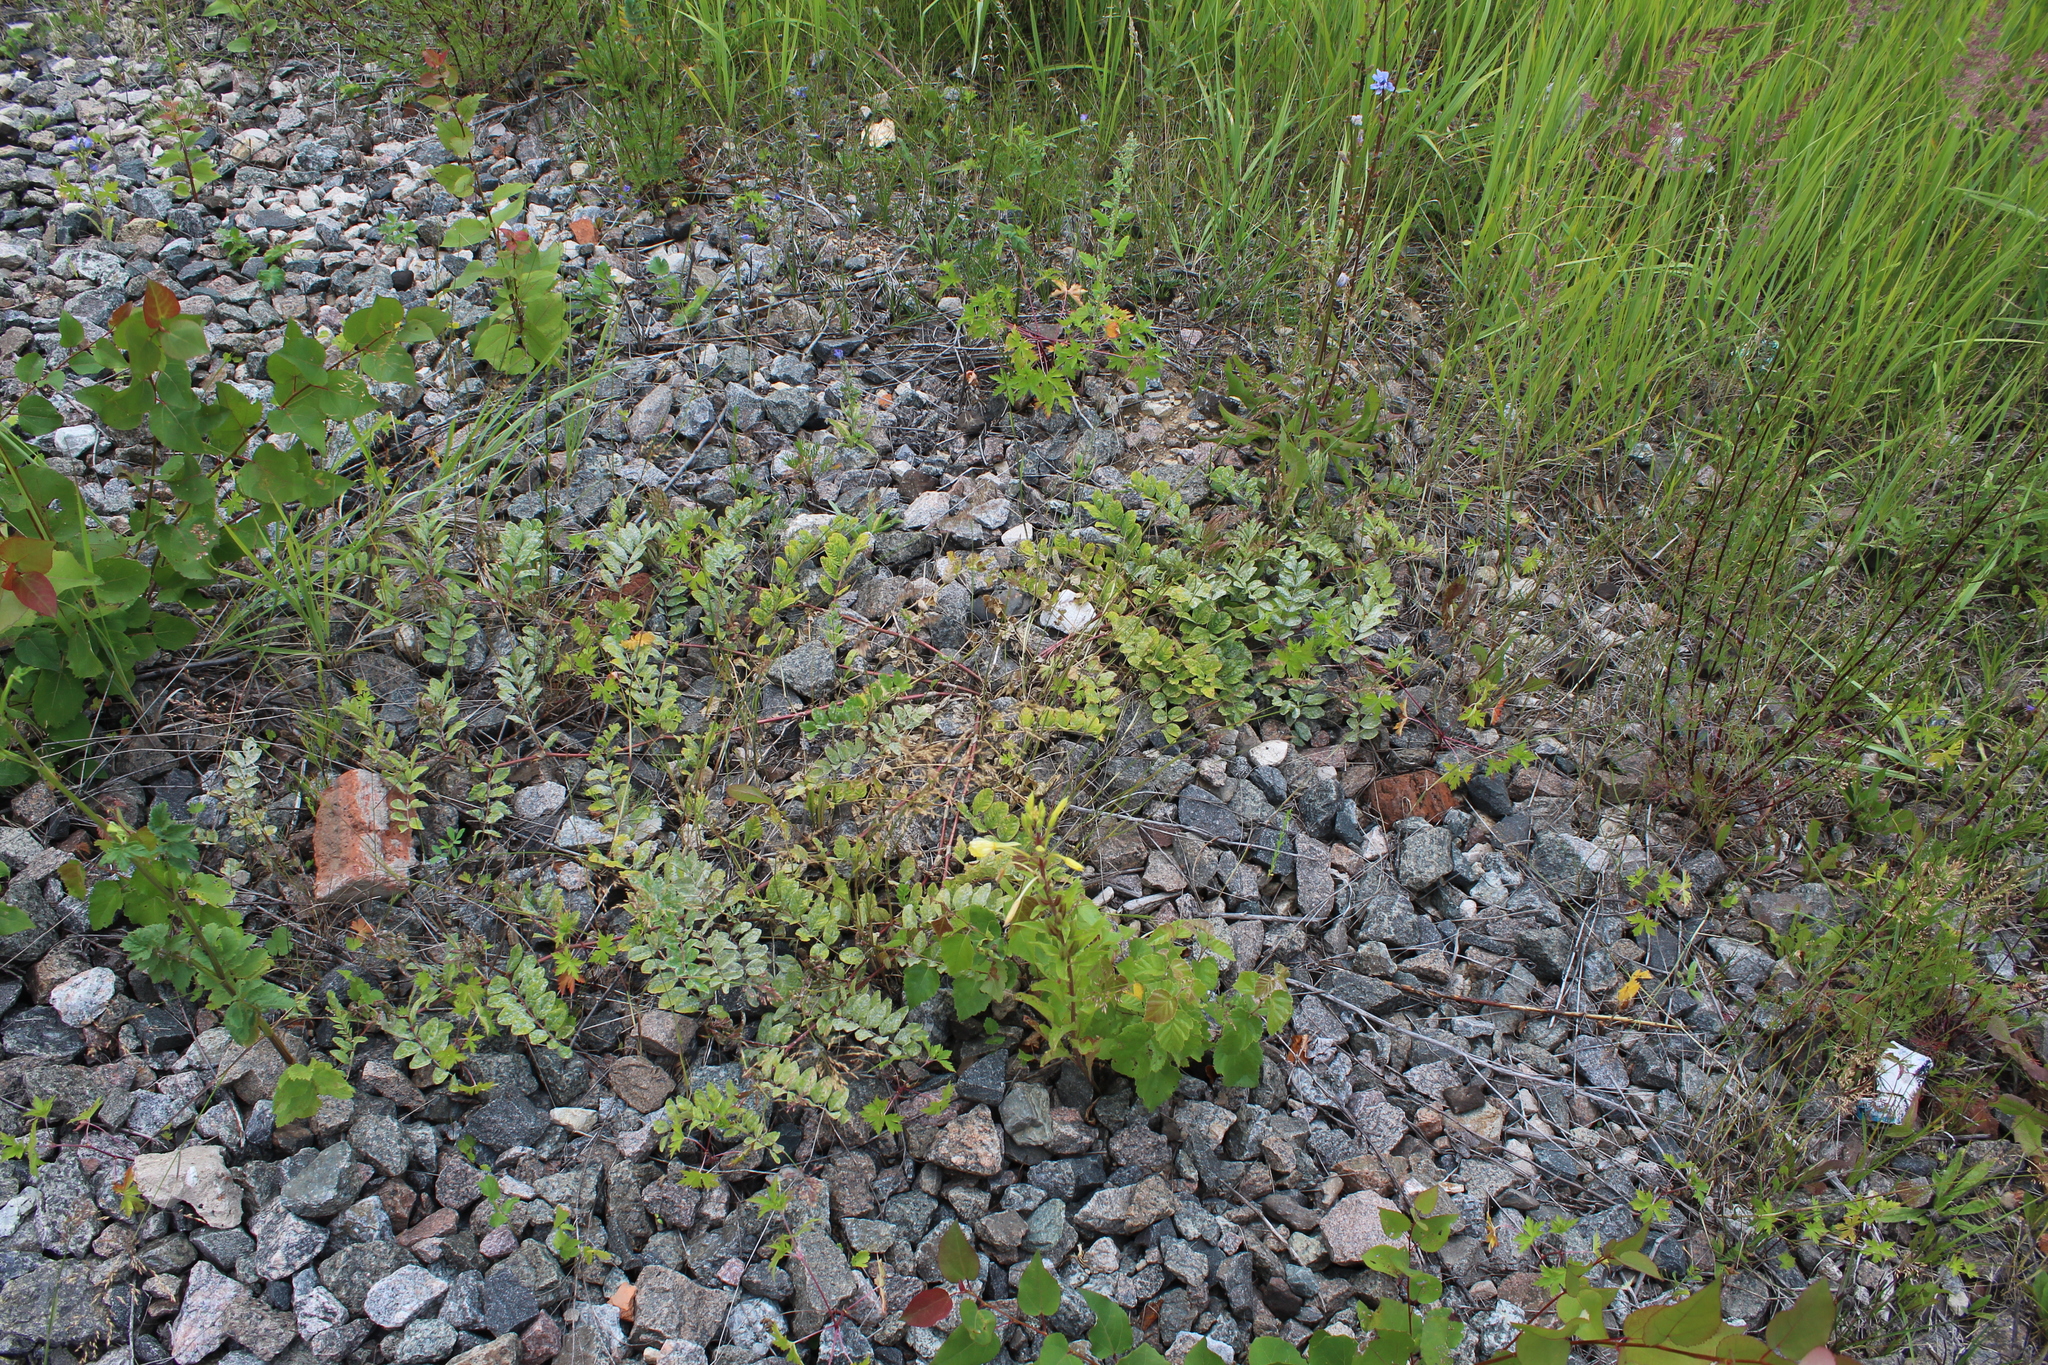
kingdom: Plantae
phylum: Tracheophyta
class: Magnoliopsida
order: Fabales
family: Fabaceae
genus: Astragalus
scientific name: Astragalus glycyphyllos
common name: Wild liquorice
